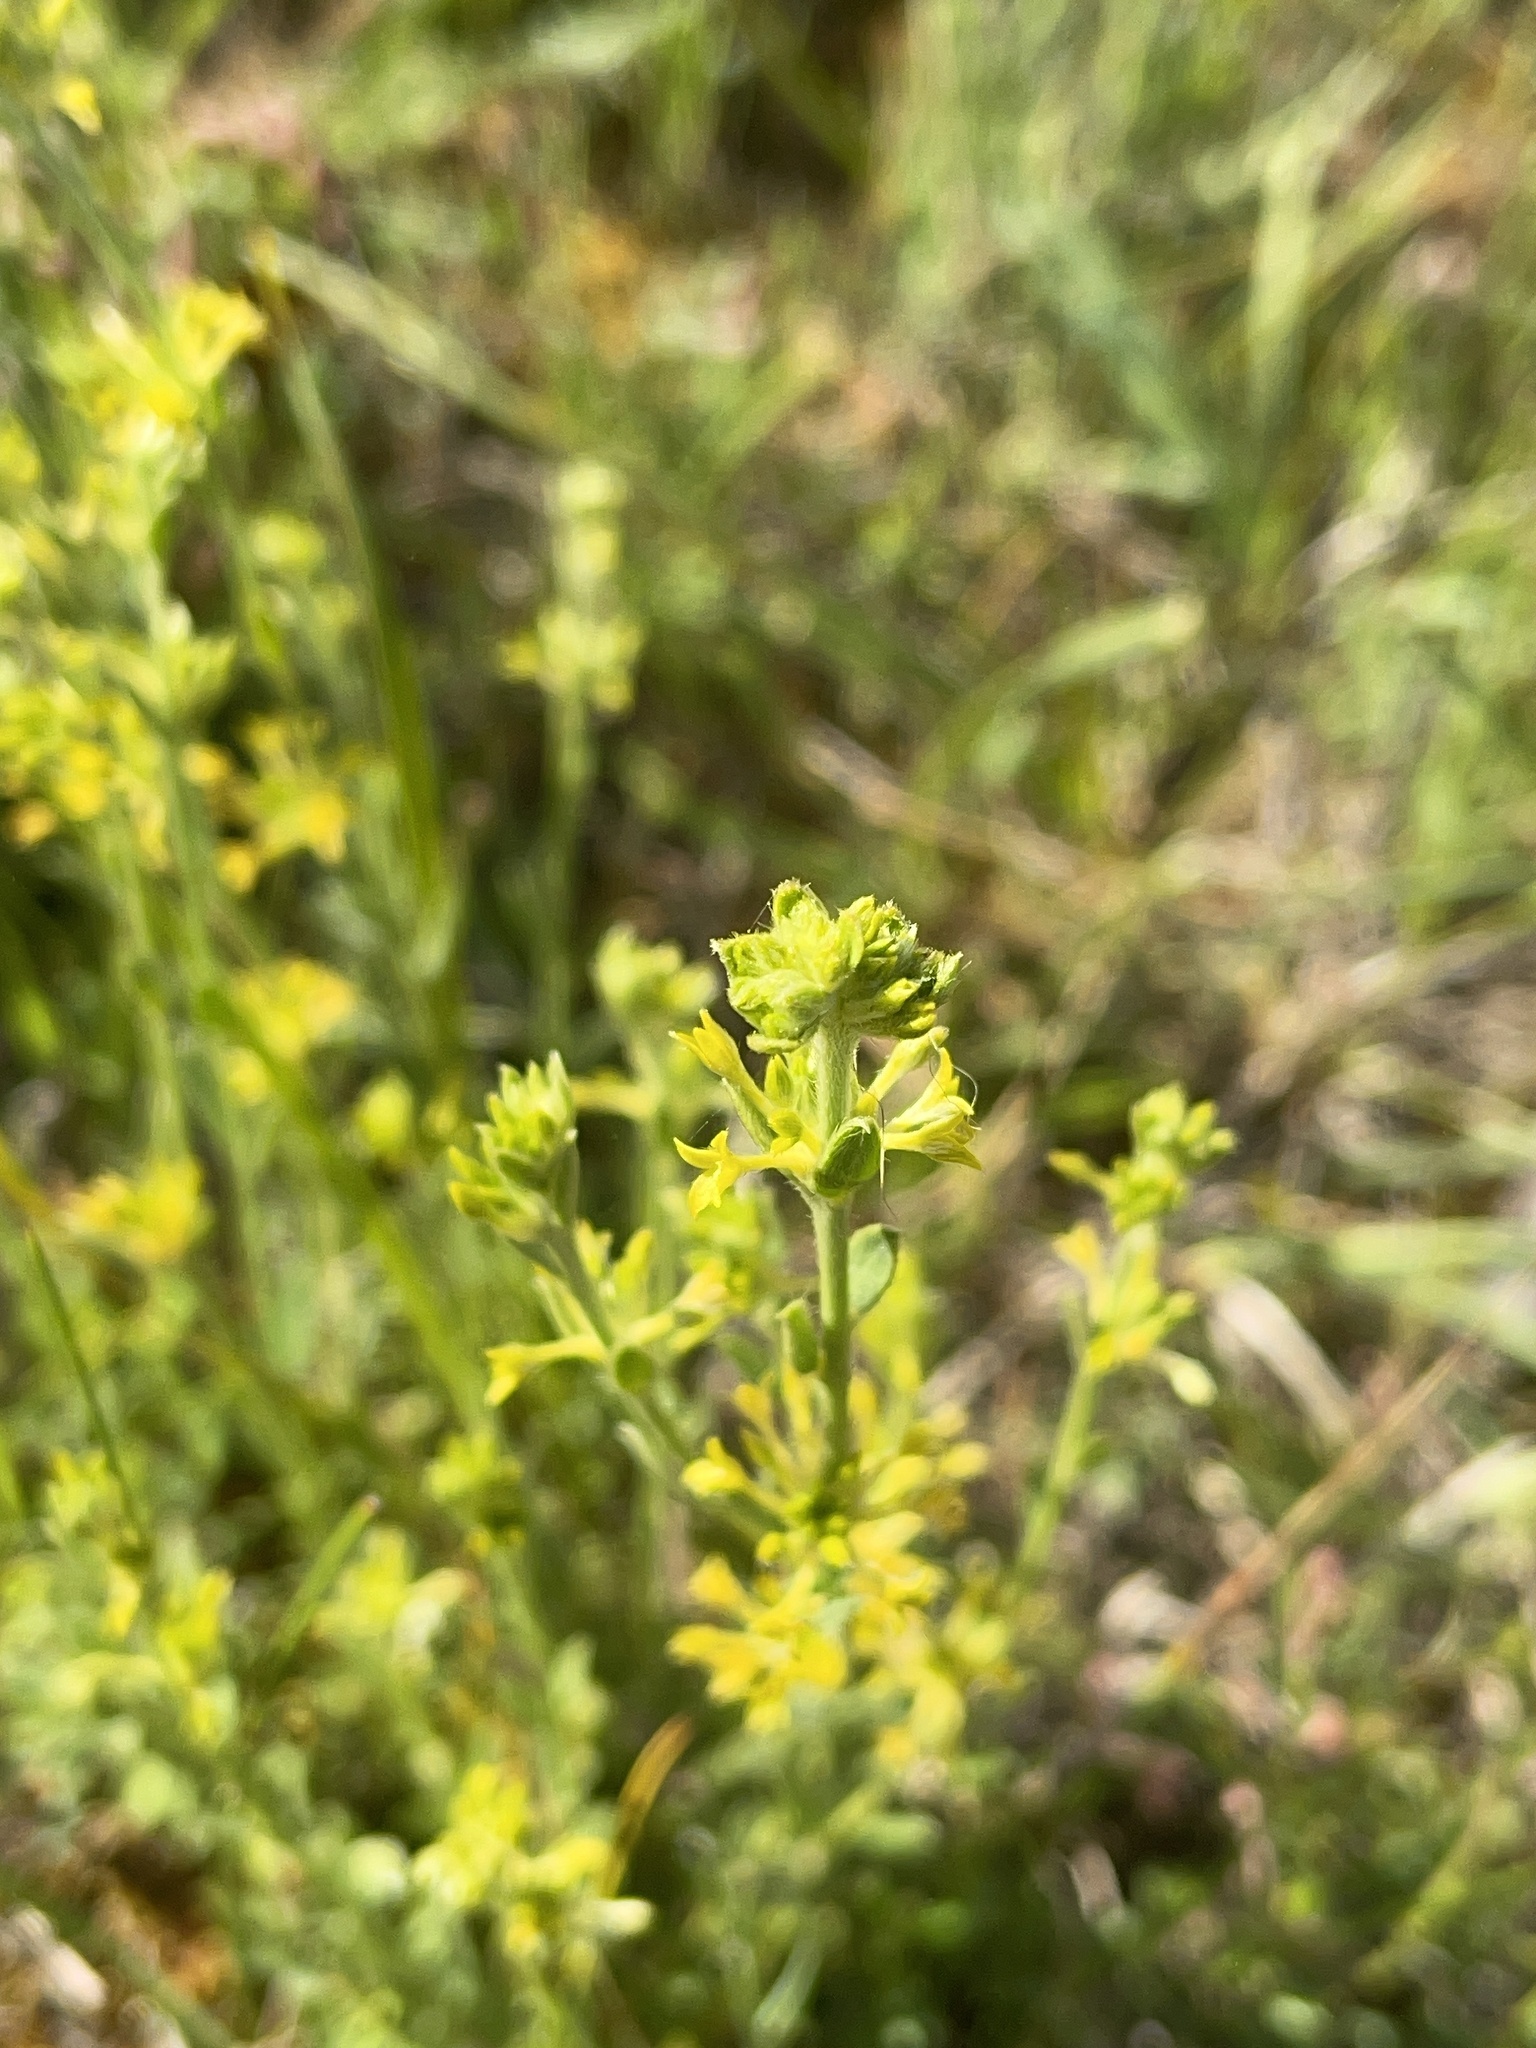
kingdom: Plantae
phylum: Tracheophyta
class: Magnoliopsida
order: Malvales
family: Thymelaeaceae
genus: Pimelea
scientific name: Pimelea curviflora
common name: Curved riceflower
